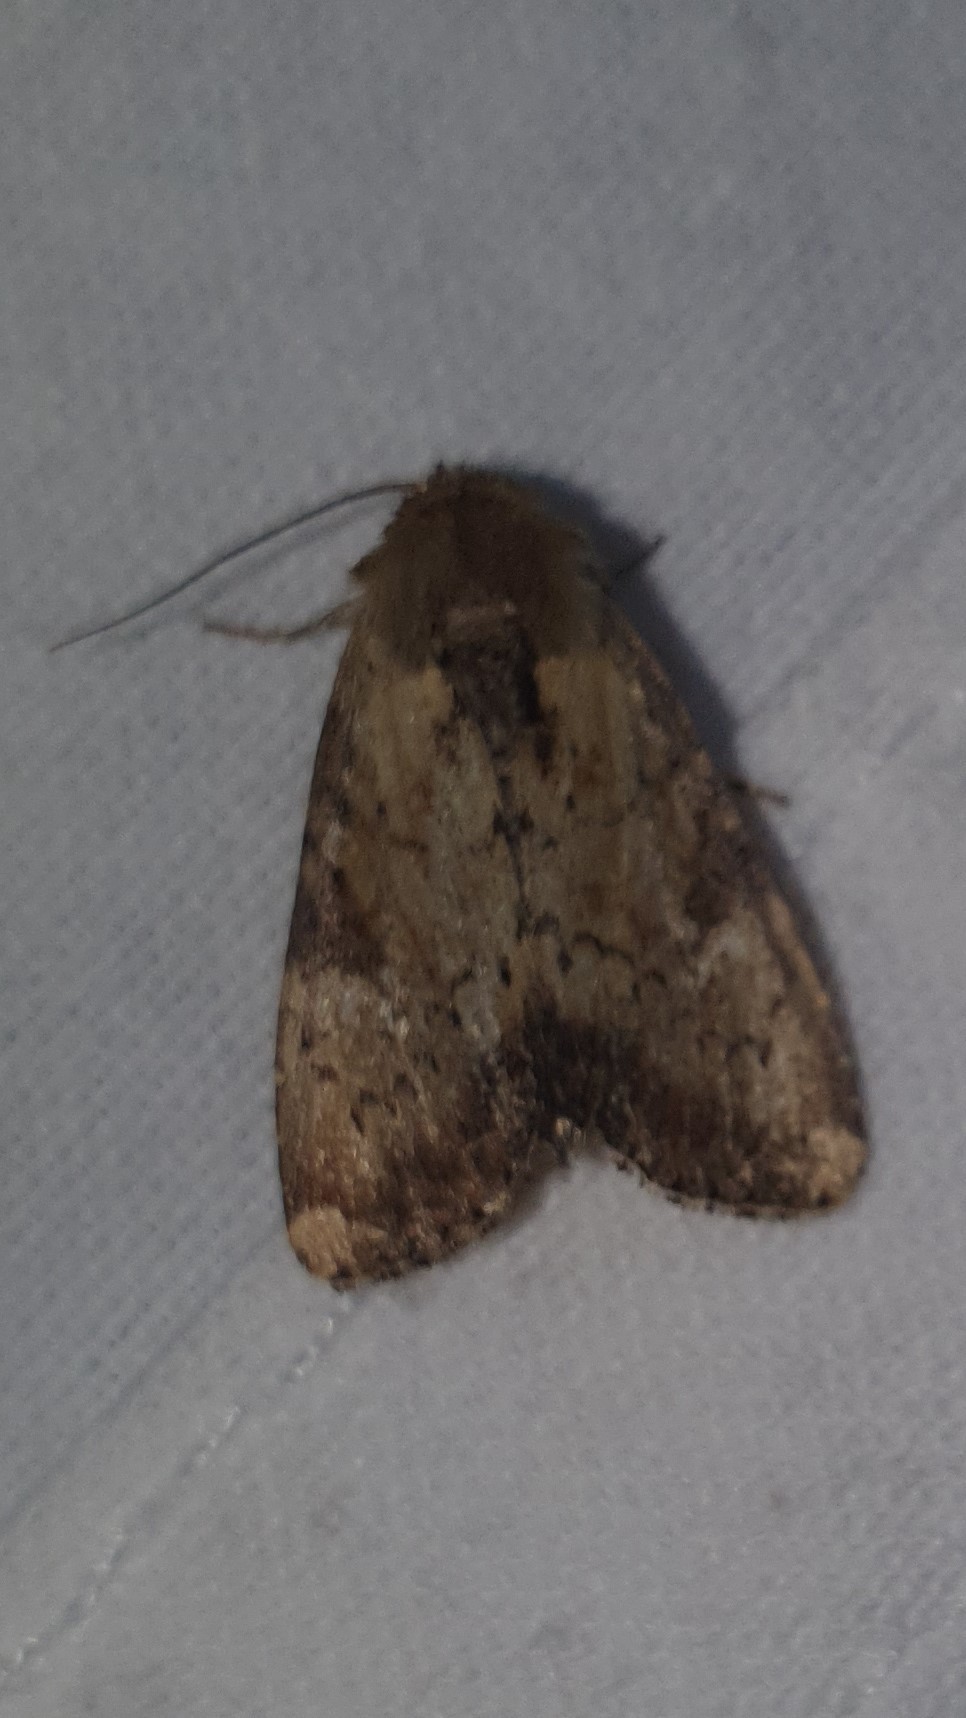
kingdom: Animalia
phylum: Arthropoda
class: Insecta
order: Lepidoptera
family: Noctuidae
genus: Loscopia
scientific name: Loscopia scolopacina
